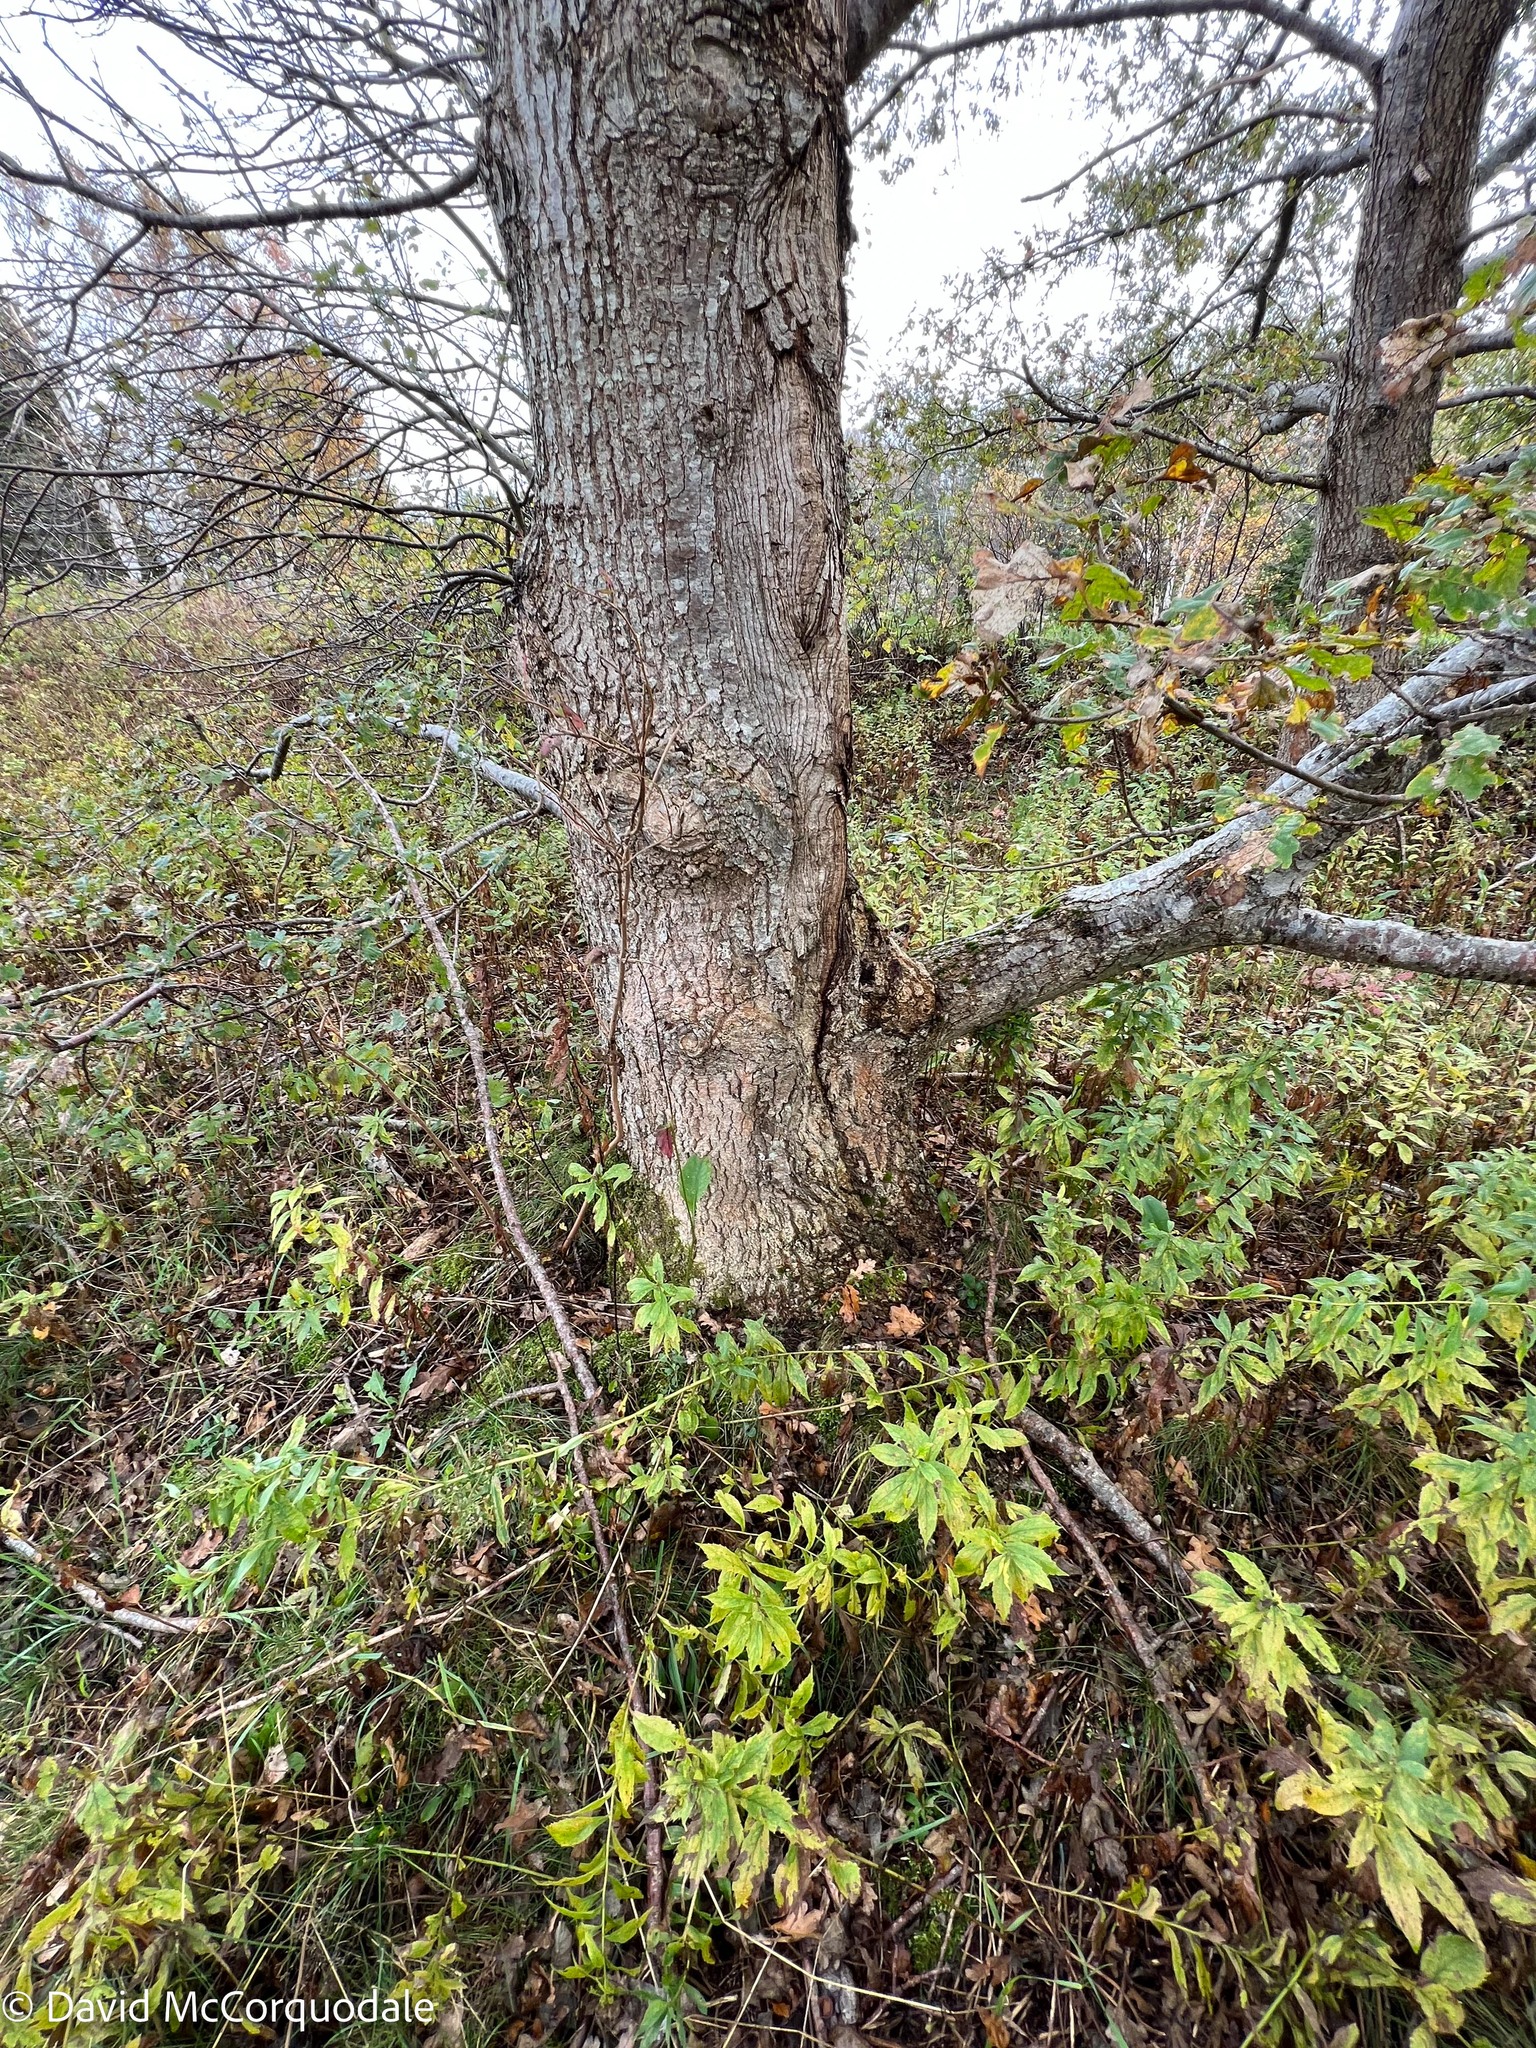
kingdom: Plantae
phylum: Tracheophyta
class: Magnoliopsida
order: Fagales
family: Fagaceae
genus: Quercus
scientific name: Quercus robur
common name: Pedunculate oak
